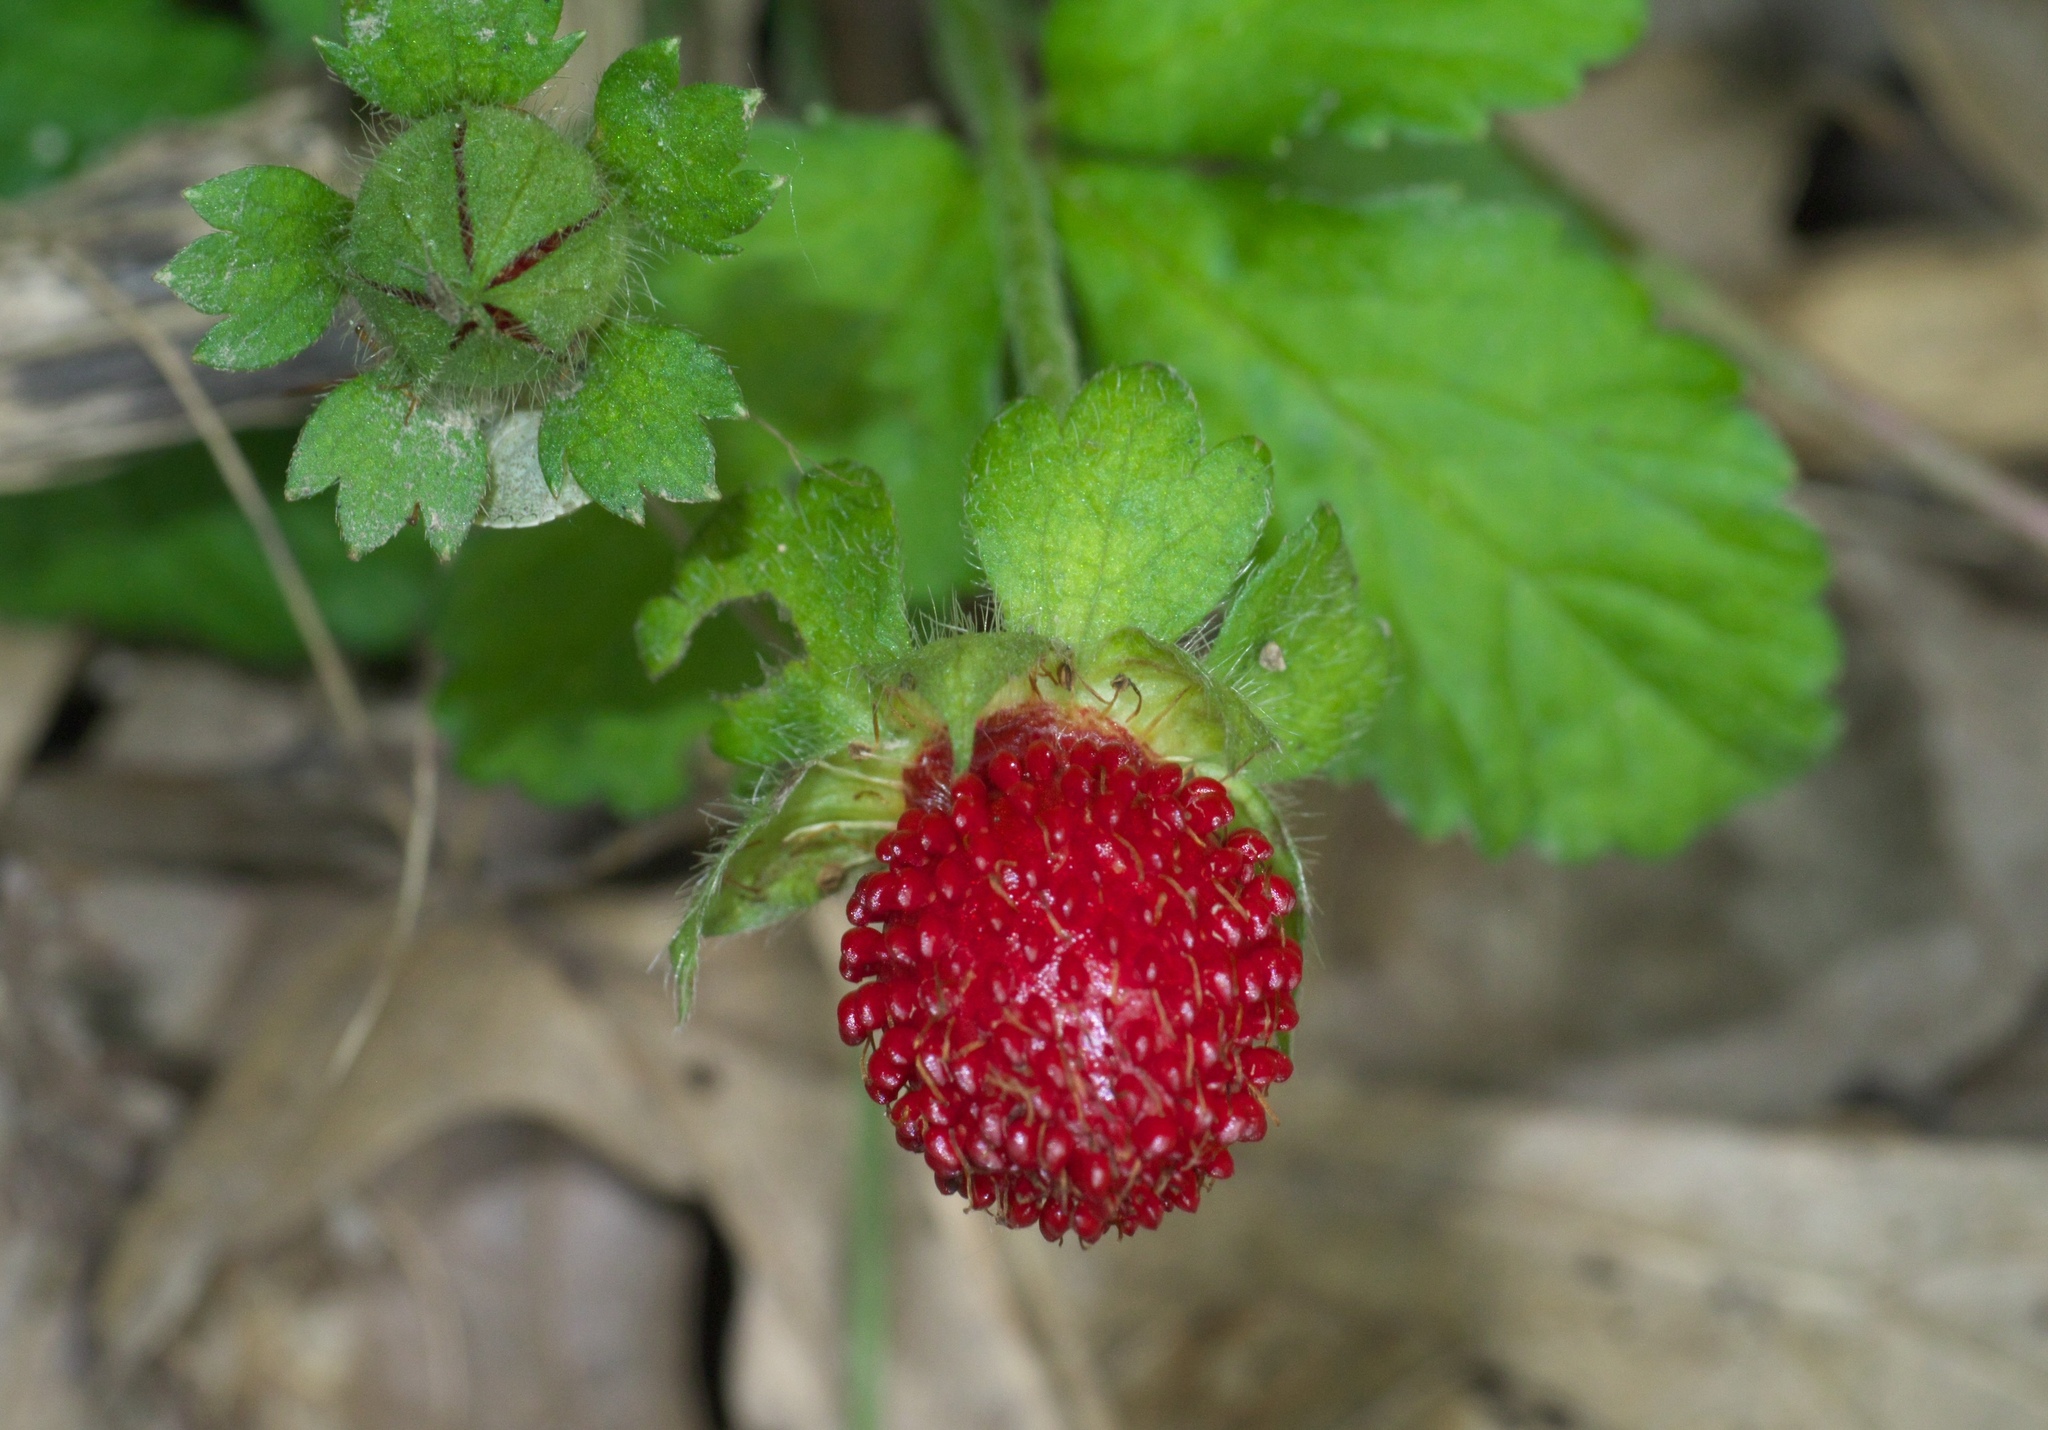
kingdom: Plantae
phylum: Tracheophyta
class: Magnoliopsida
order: Rosales
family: Rosaceae
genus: Potentilla
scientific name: Potentilla indica
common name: Yellow-flowered strawberry
